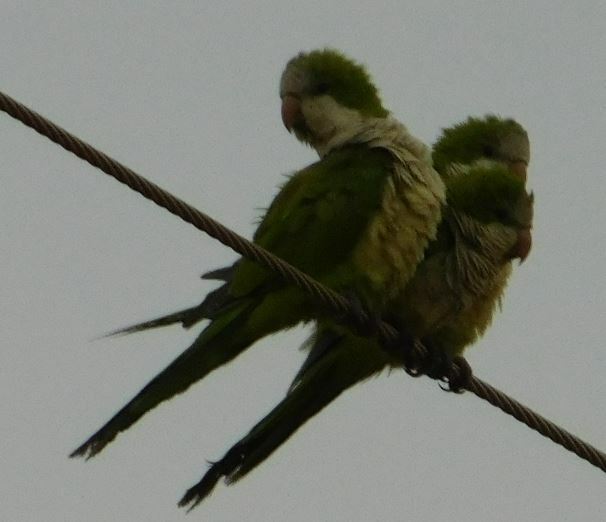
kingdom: Animalia
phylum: Chordata
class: Aves
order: Psittaciformes
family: Psittacidae
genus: Myiopsitta
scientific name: Myiopsitta monachus
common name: Monk parakeet
